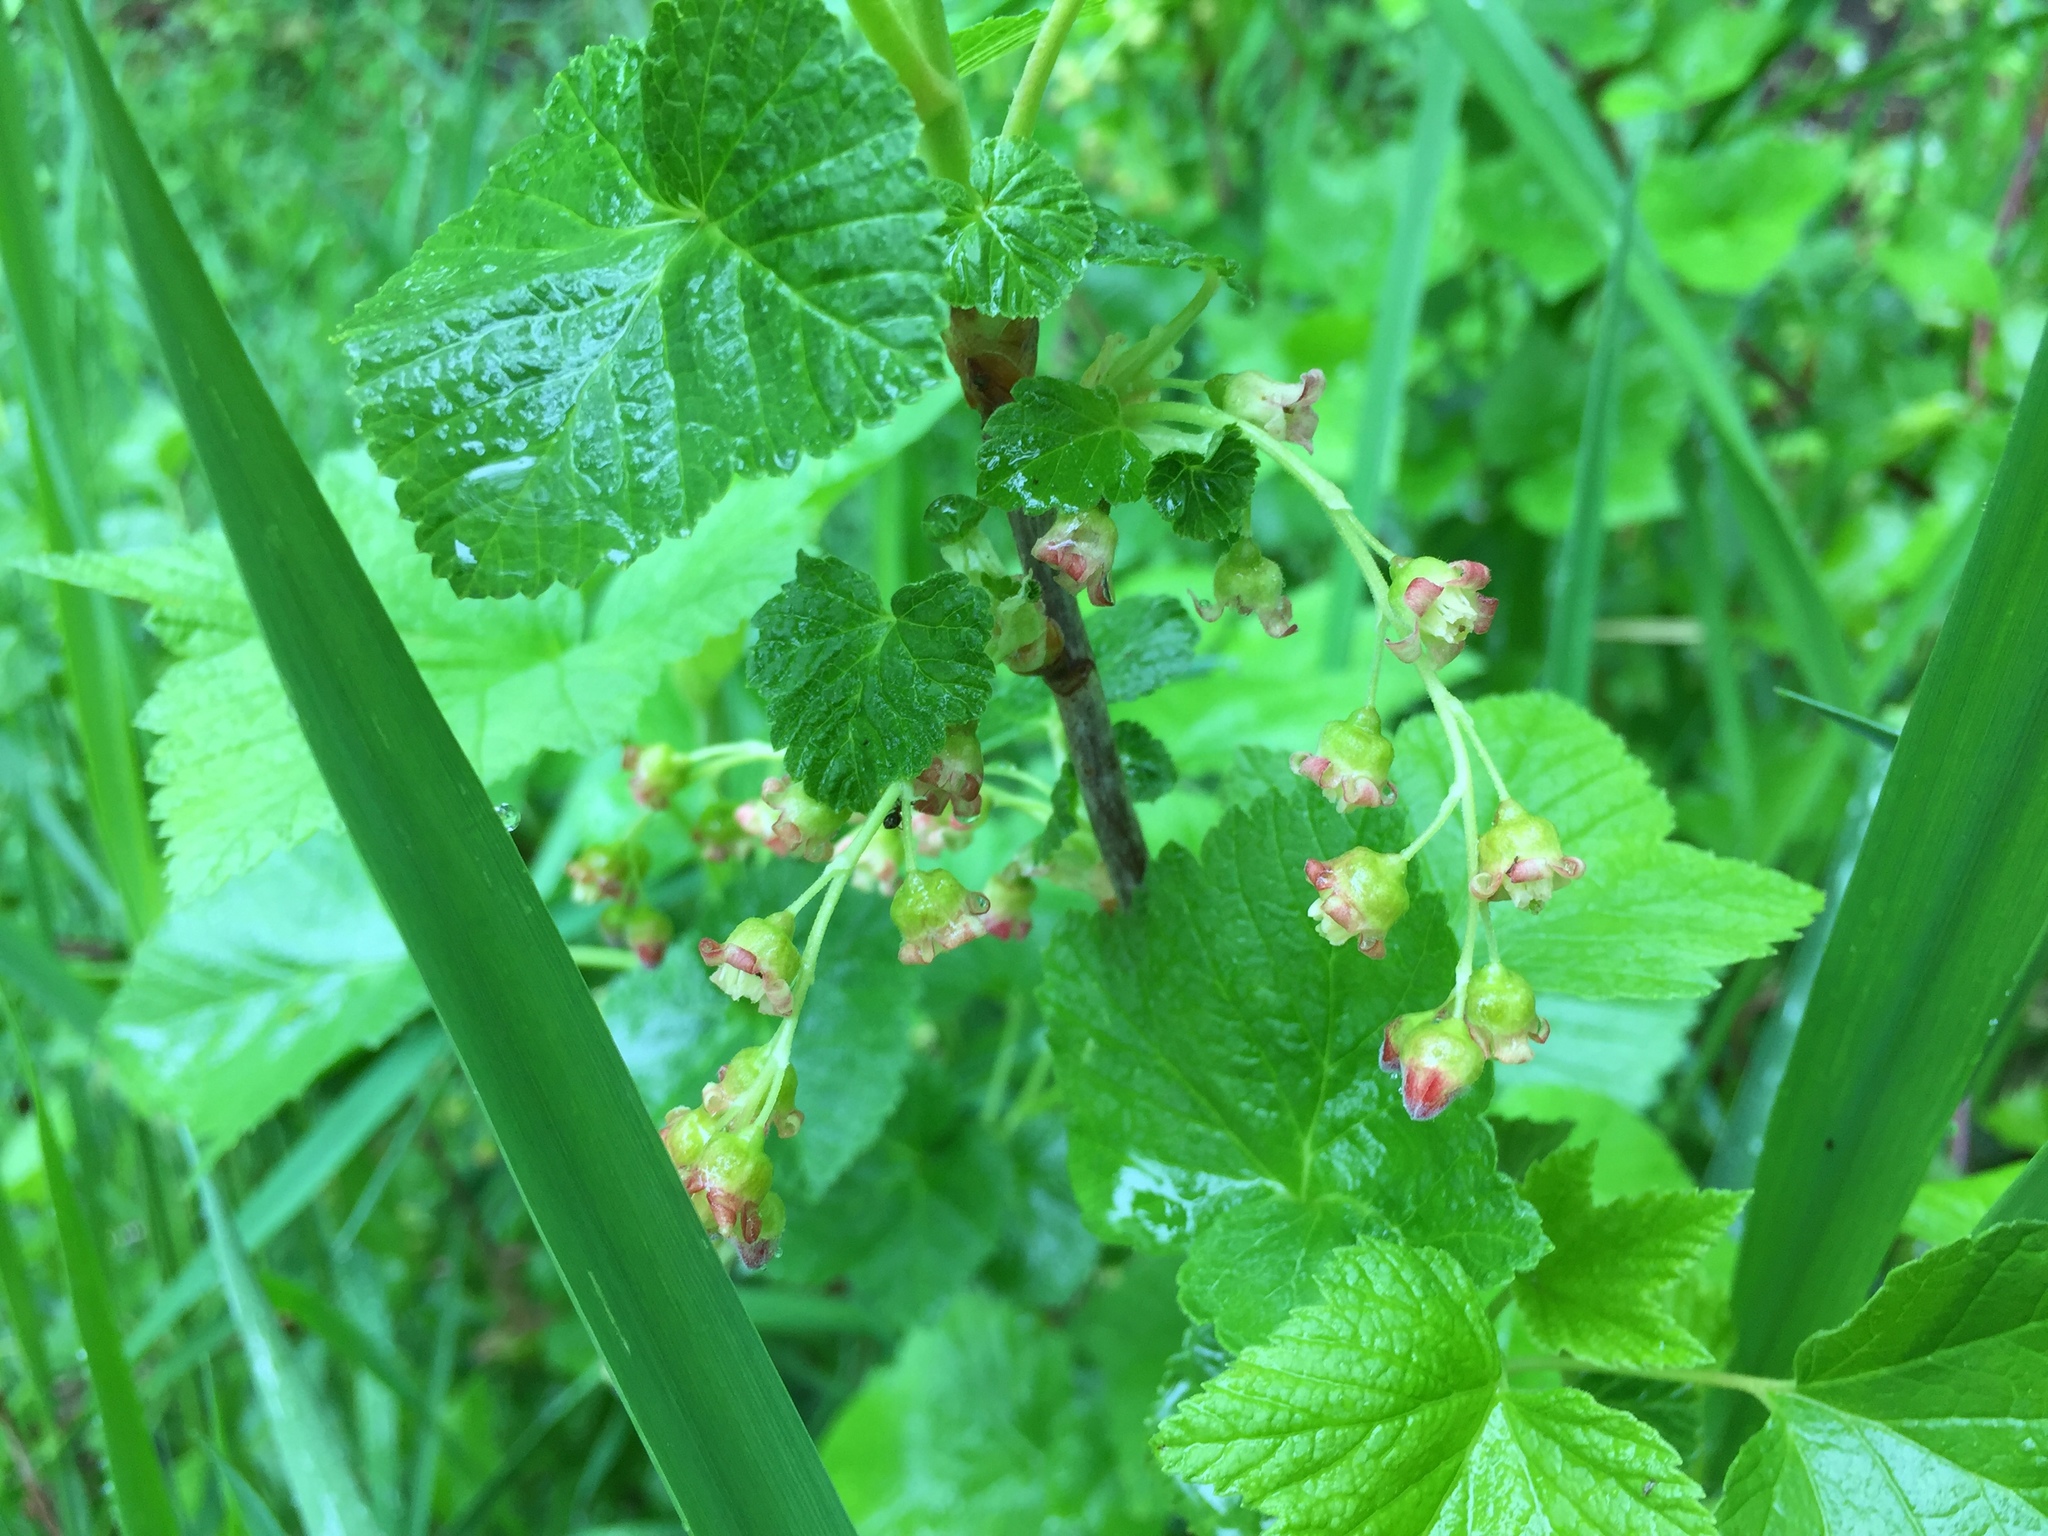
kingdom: Plantae
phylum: Tracheophyta
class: Magnoliopsida
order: Saxifragales
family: Grossulariaceae
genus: Ribes
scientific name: Ribes nigrum
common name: Black currant
